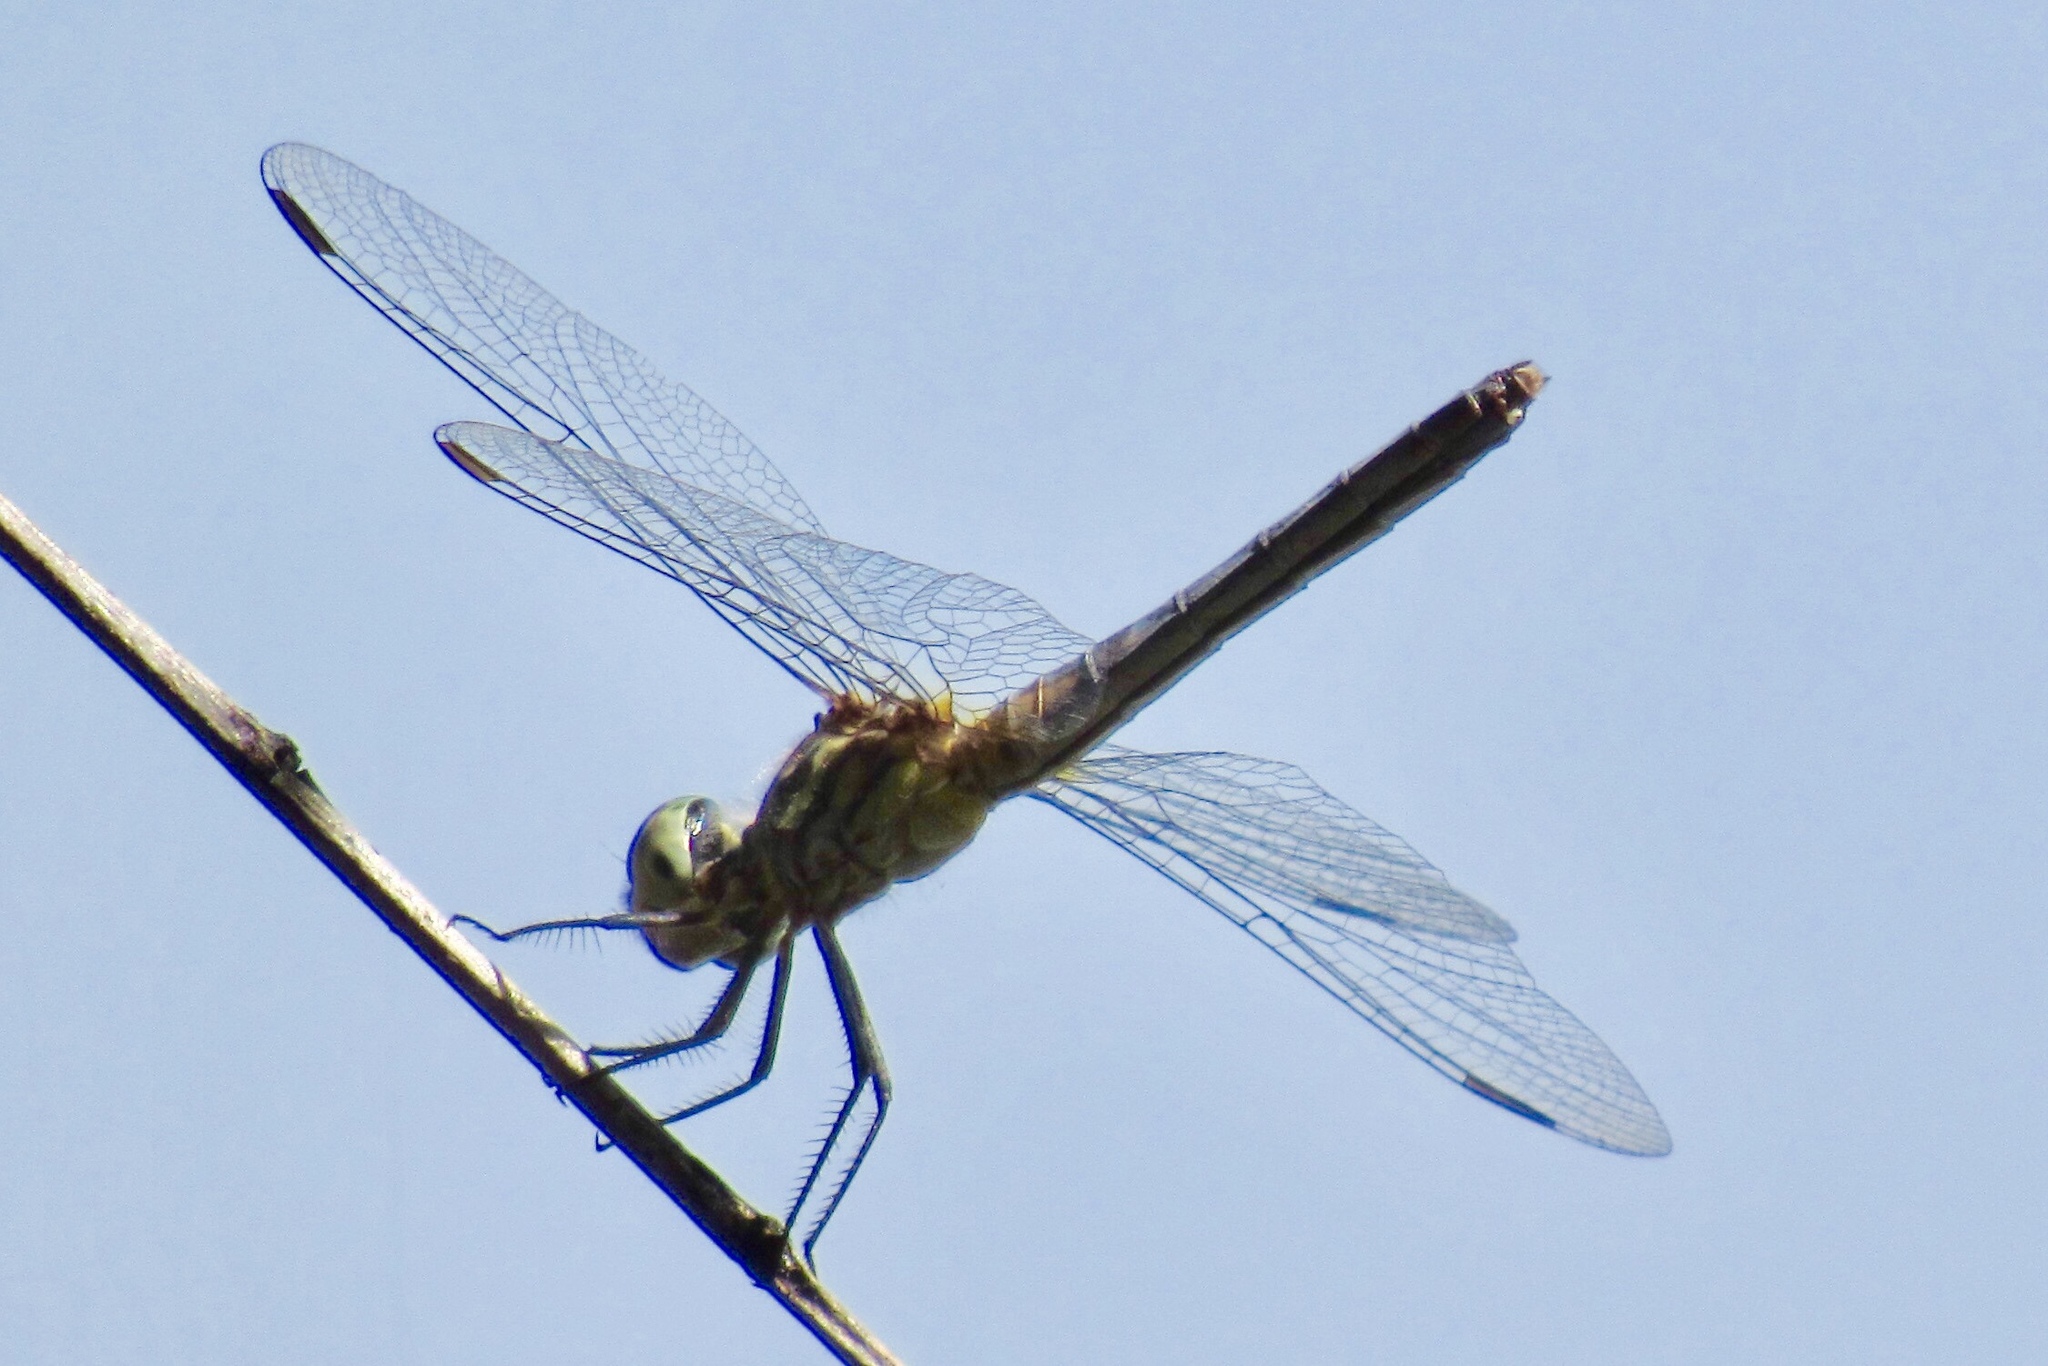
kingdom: Animalia
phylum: Arthropoda
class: Insecta
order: Odonata
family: Libellulidae
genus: Pachydiplax
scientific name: Pachydiplax longipennis
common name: Blue dasher
